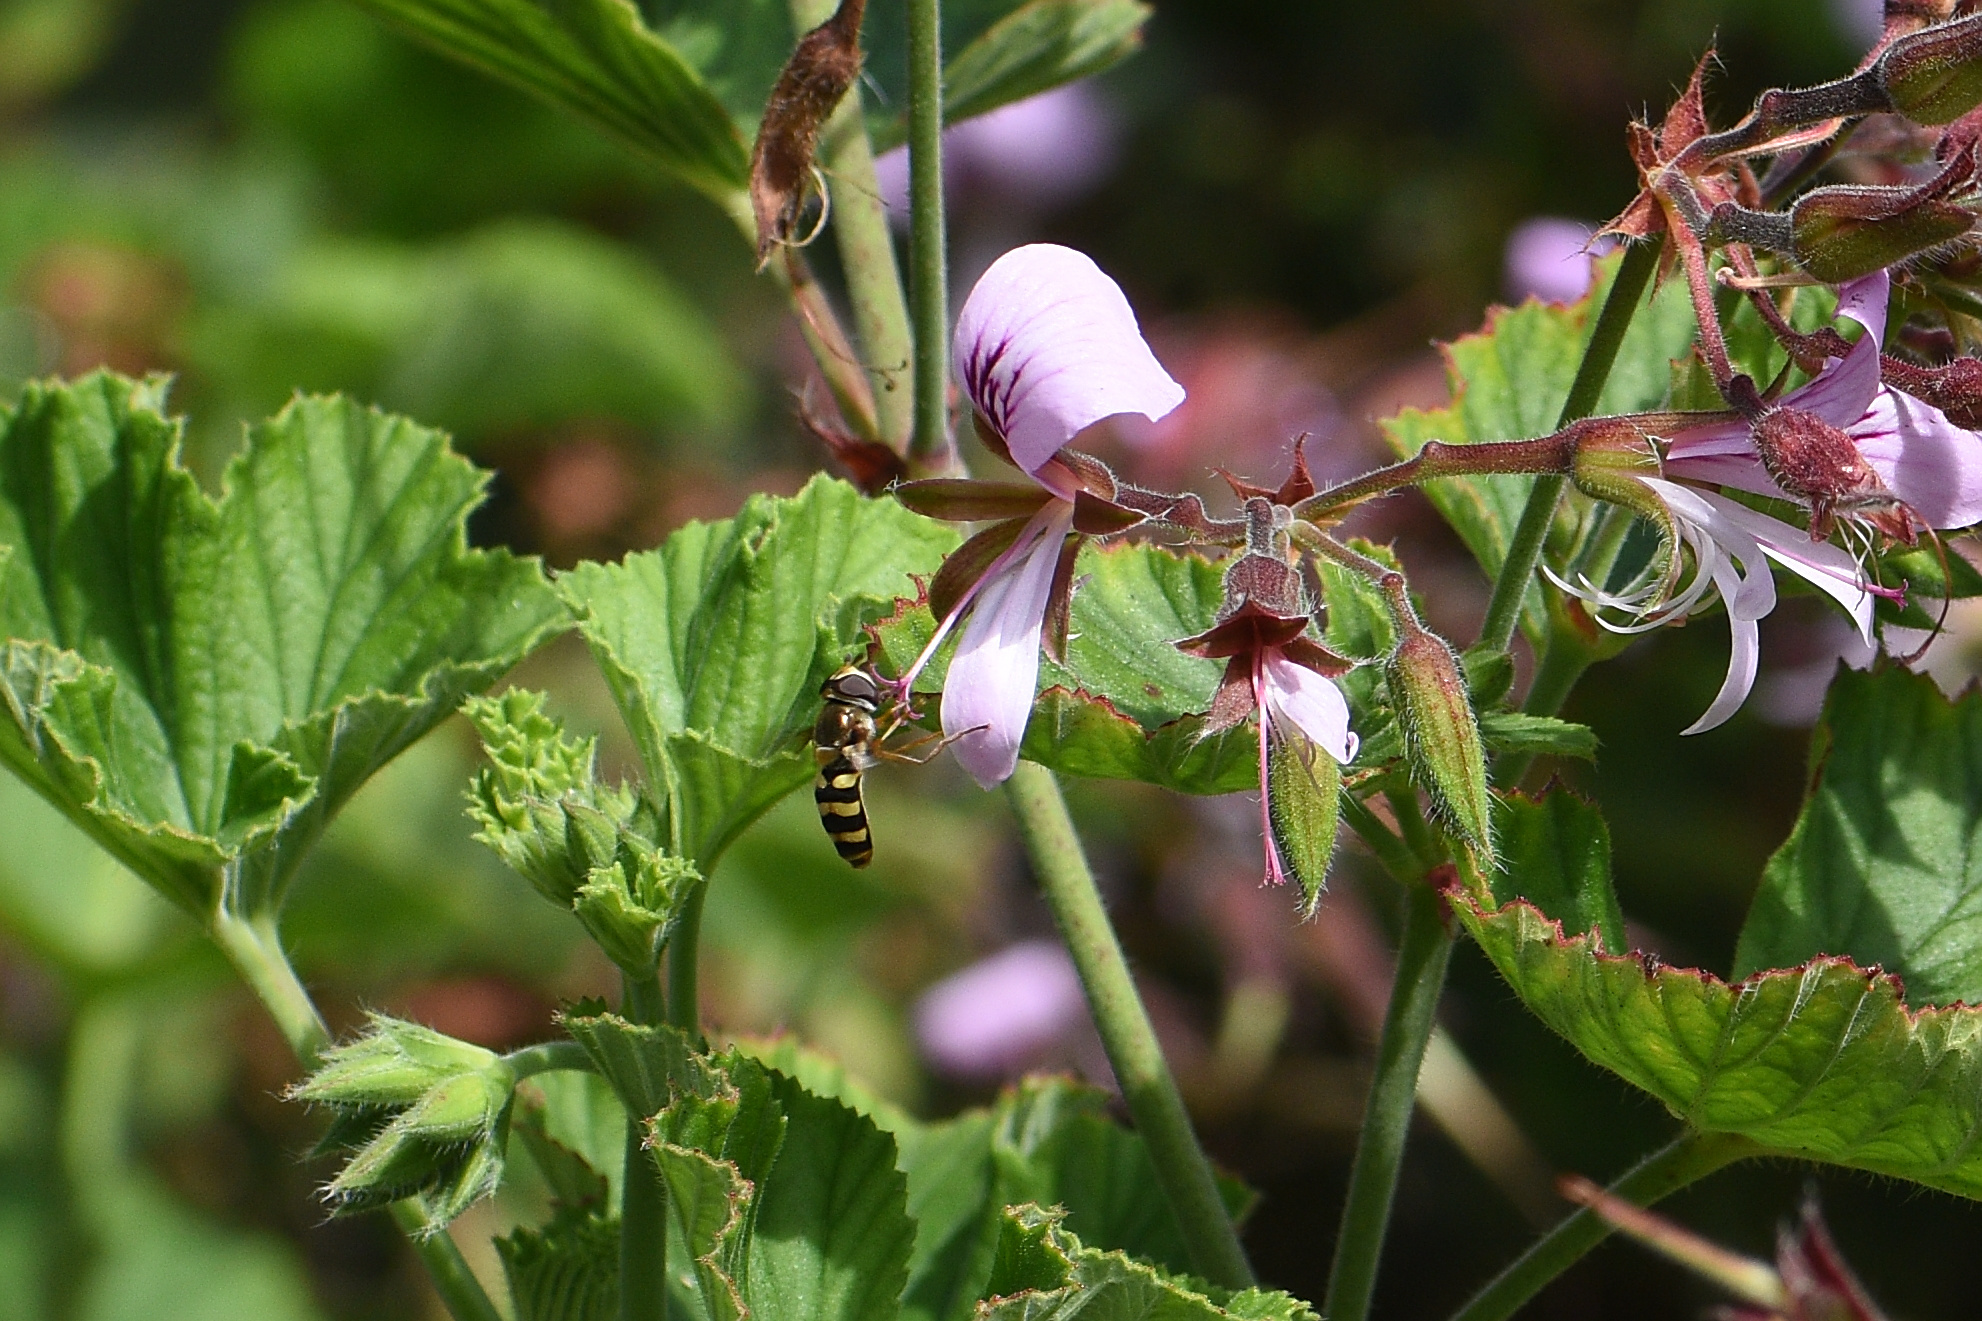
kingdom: Animalia
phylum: Arthropoda
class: Insecta
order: Diptera
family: Syrphidae
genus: Eupeodes
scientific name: Eupeodes fumipennis
